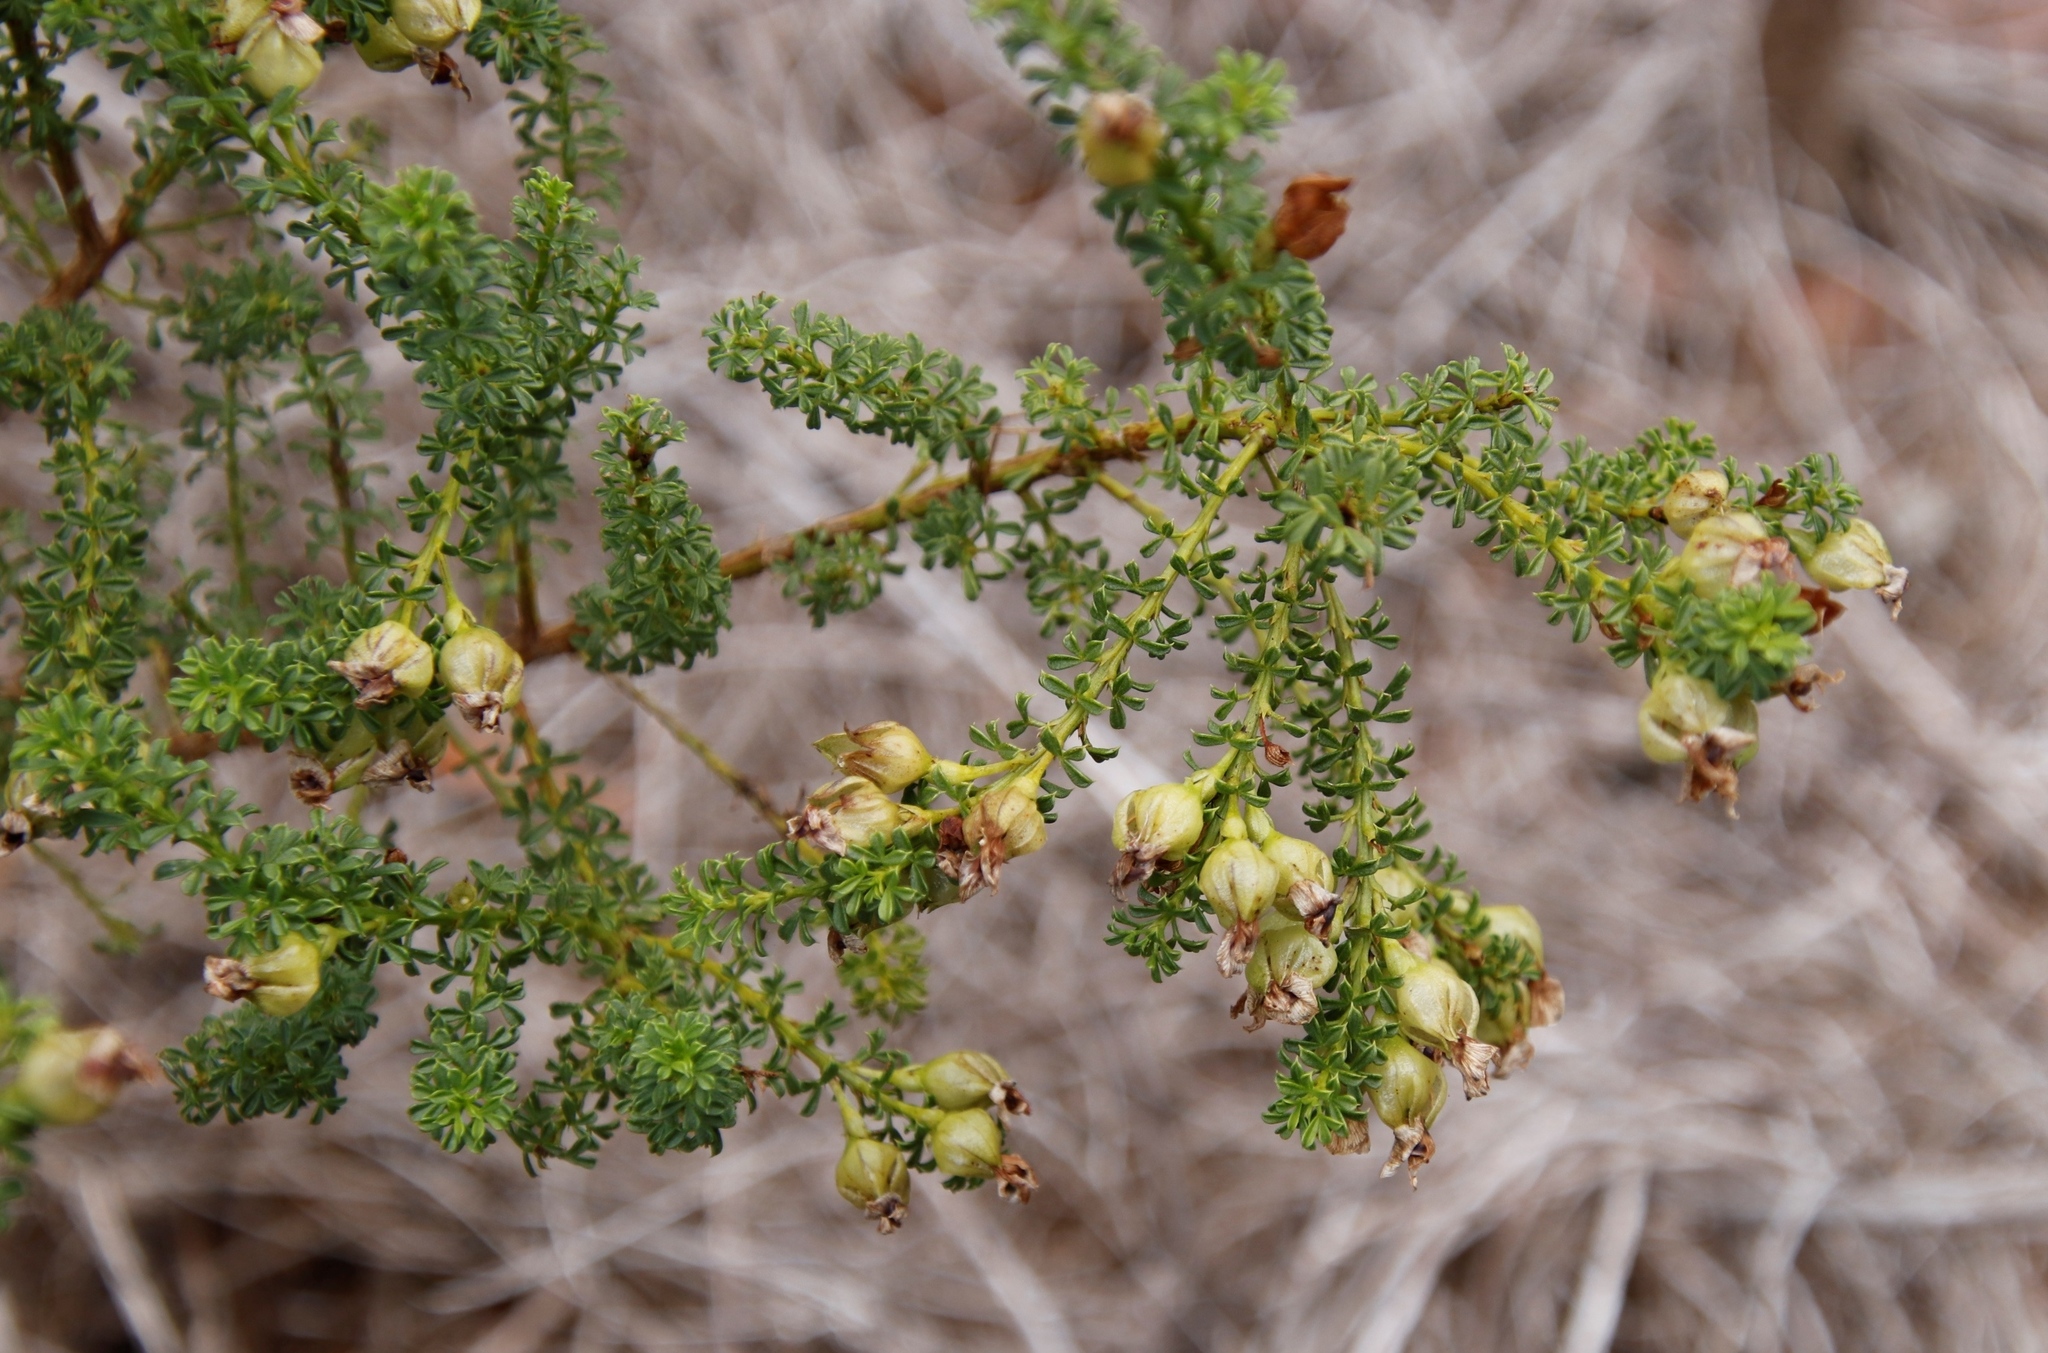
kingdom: Plantae
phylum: Tracheophyta
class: Magnoliopsida
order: Fabales
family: Fabaceae
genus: Psoralea
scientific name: Psoralea aculeata
